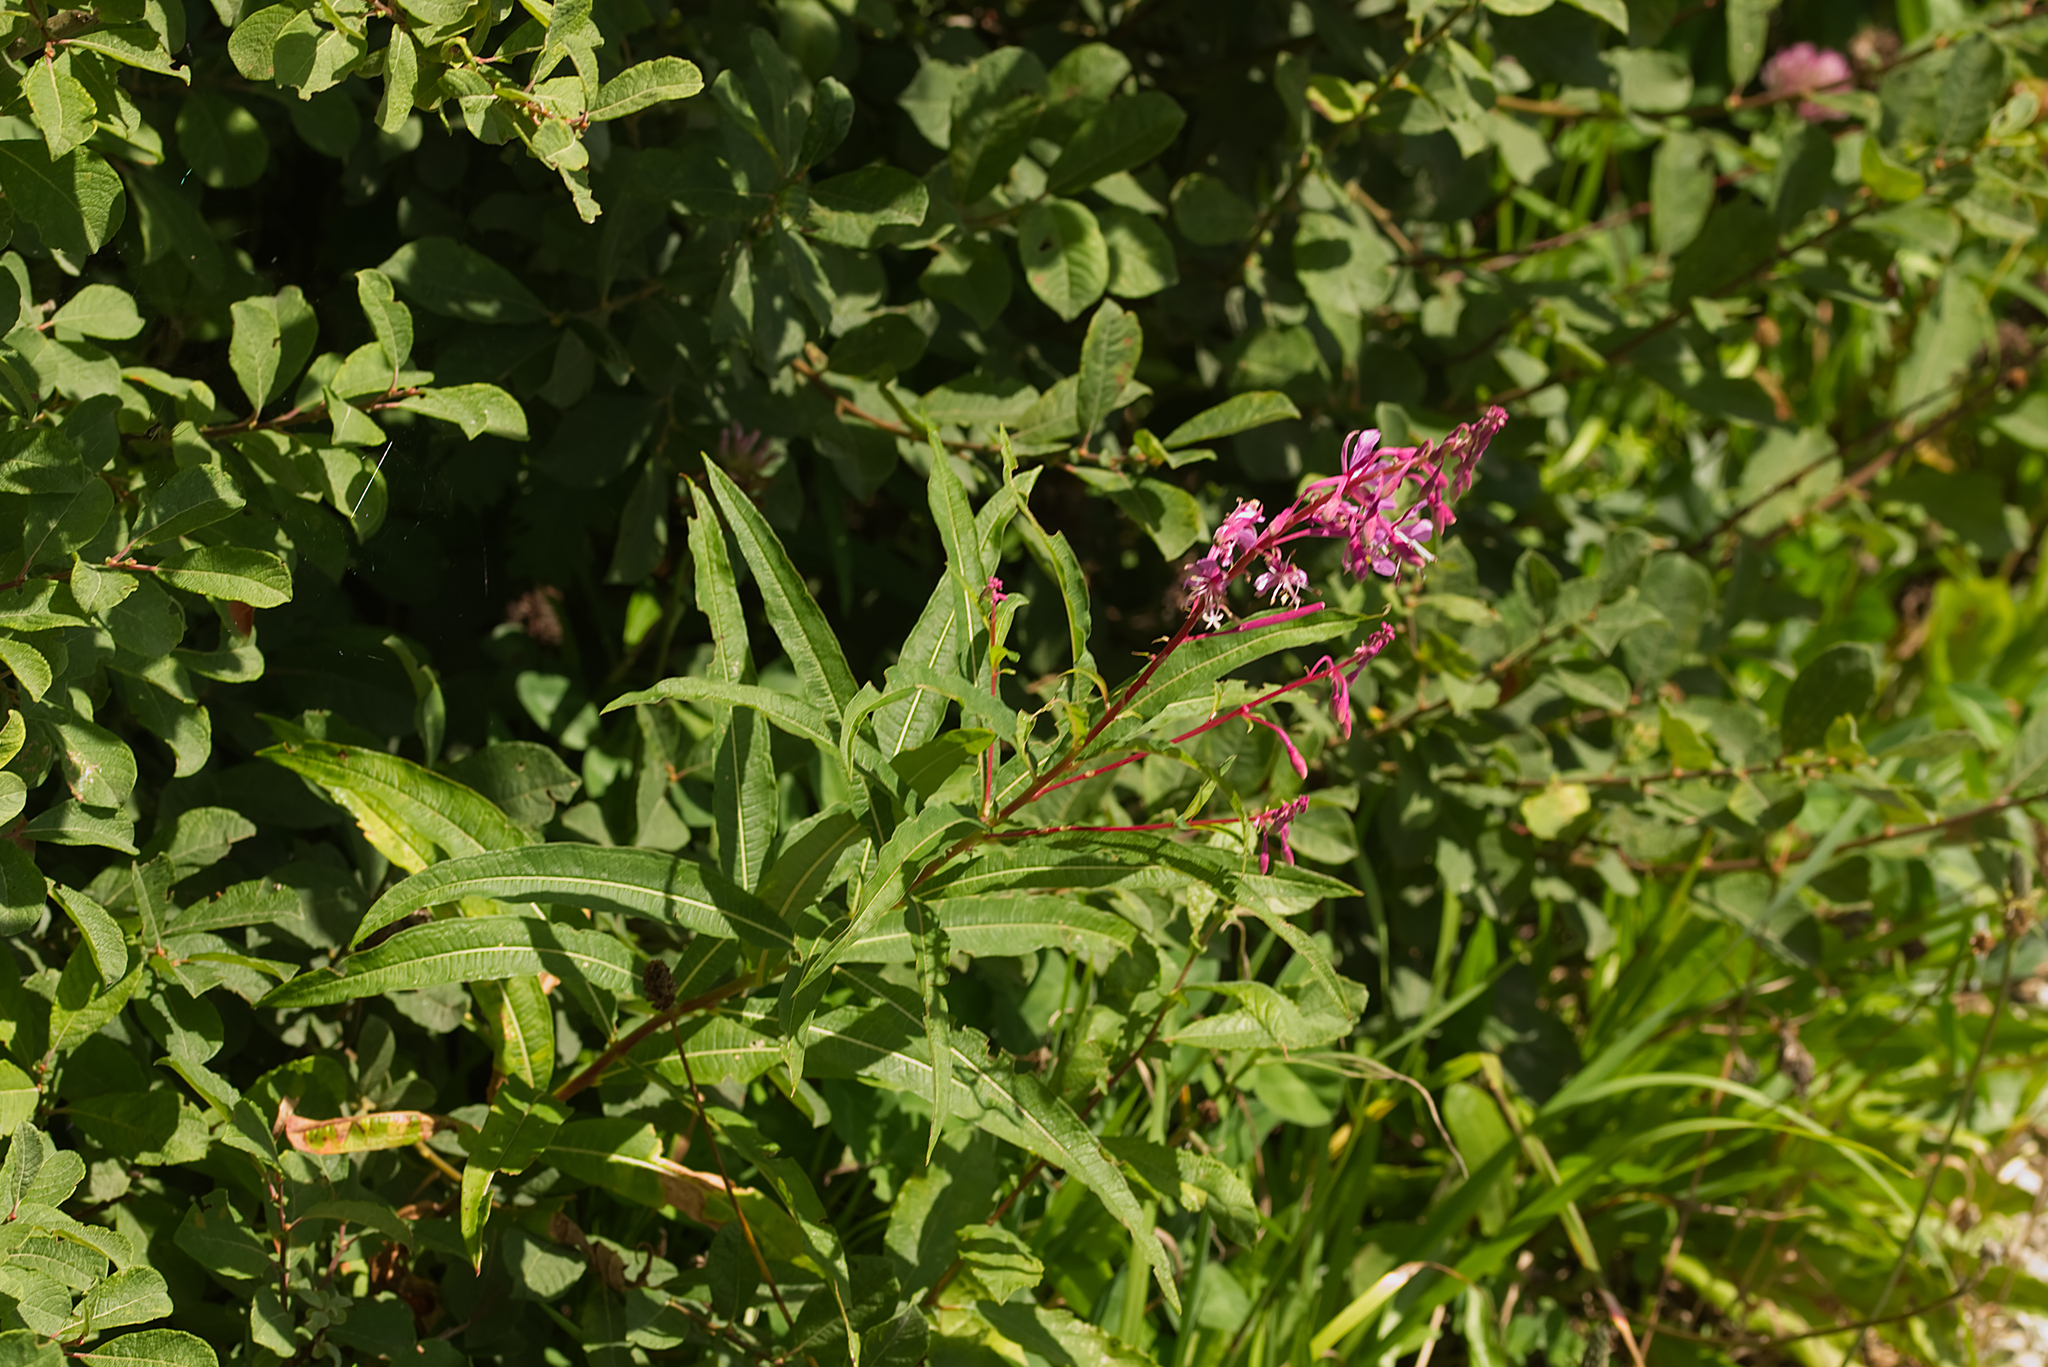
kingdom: Plantae
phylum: Tracheophyta
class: Magnoliopsida
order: Myrtales
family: Onagraceae
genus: Chamaenerion
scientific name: Chamaenerion angustifolium
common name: Fireweed
